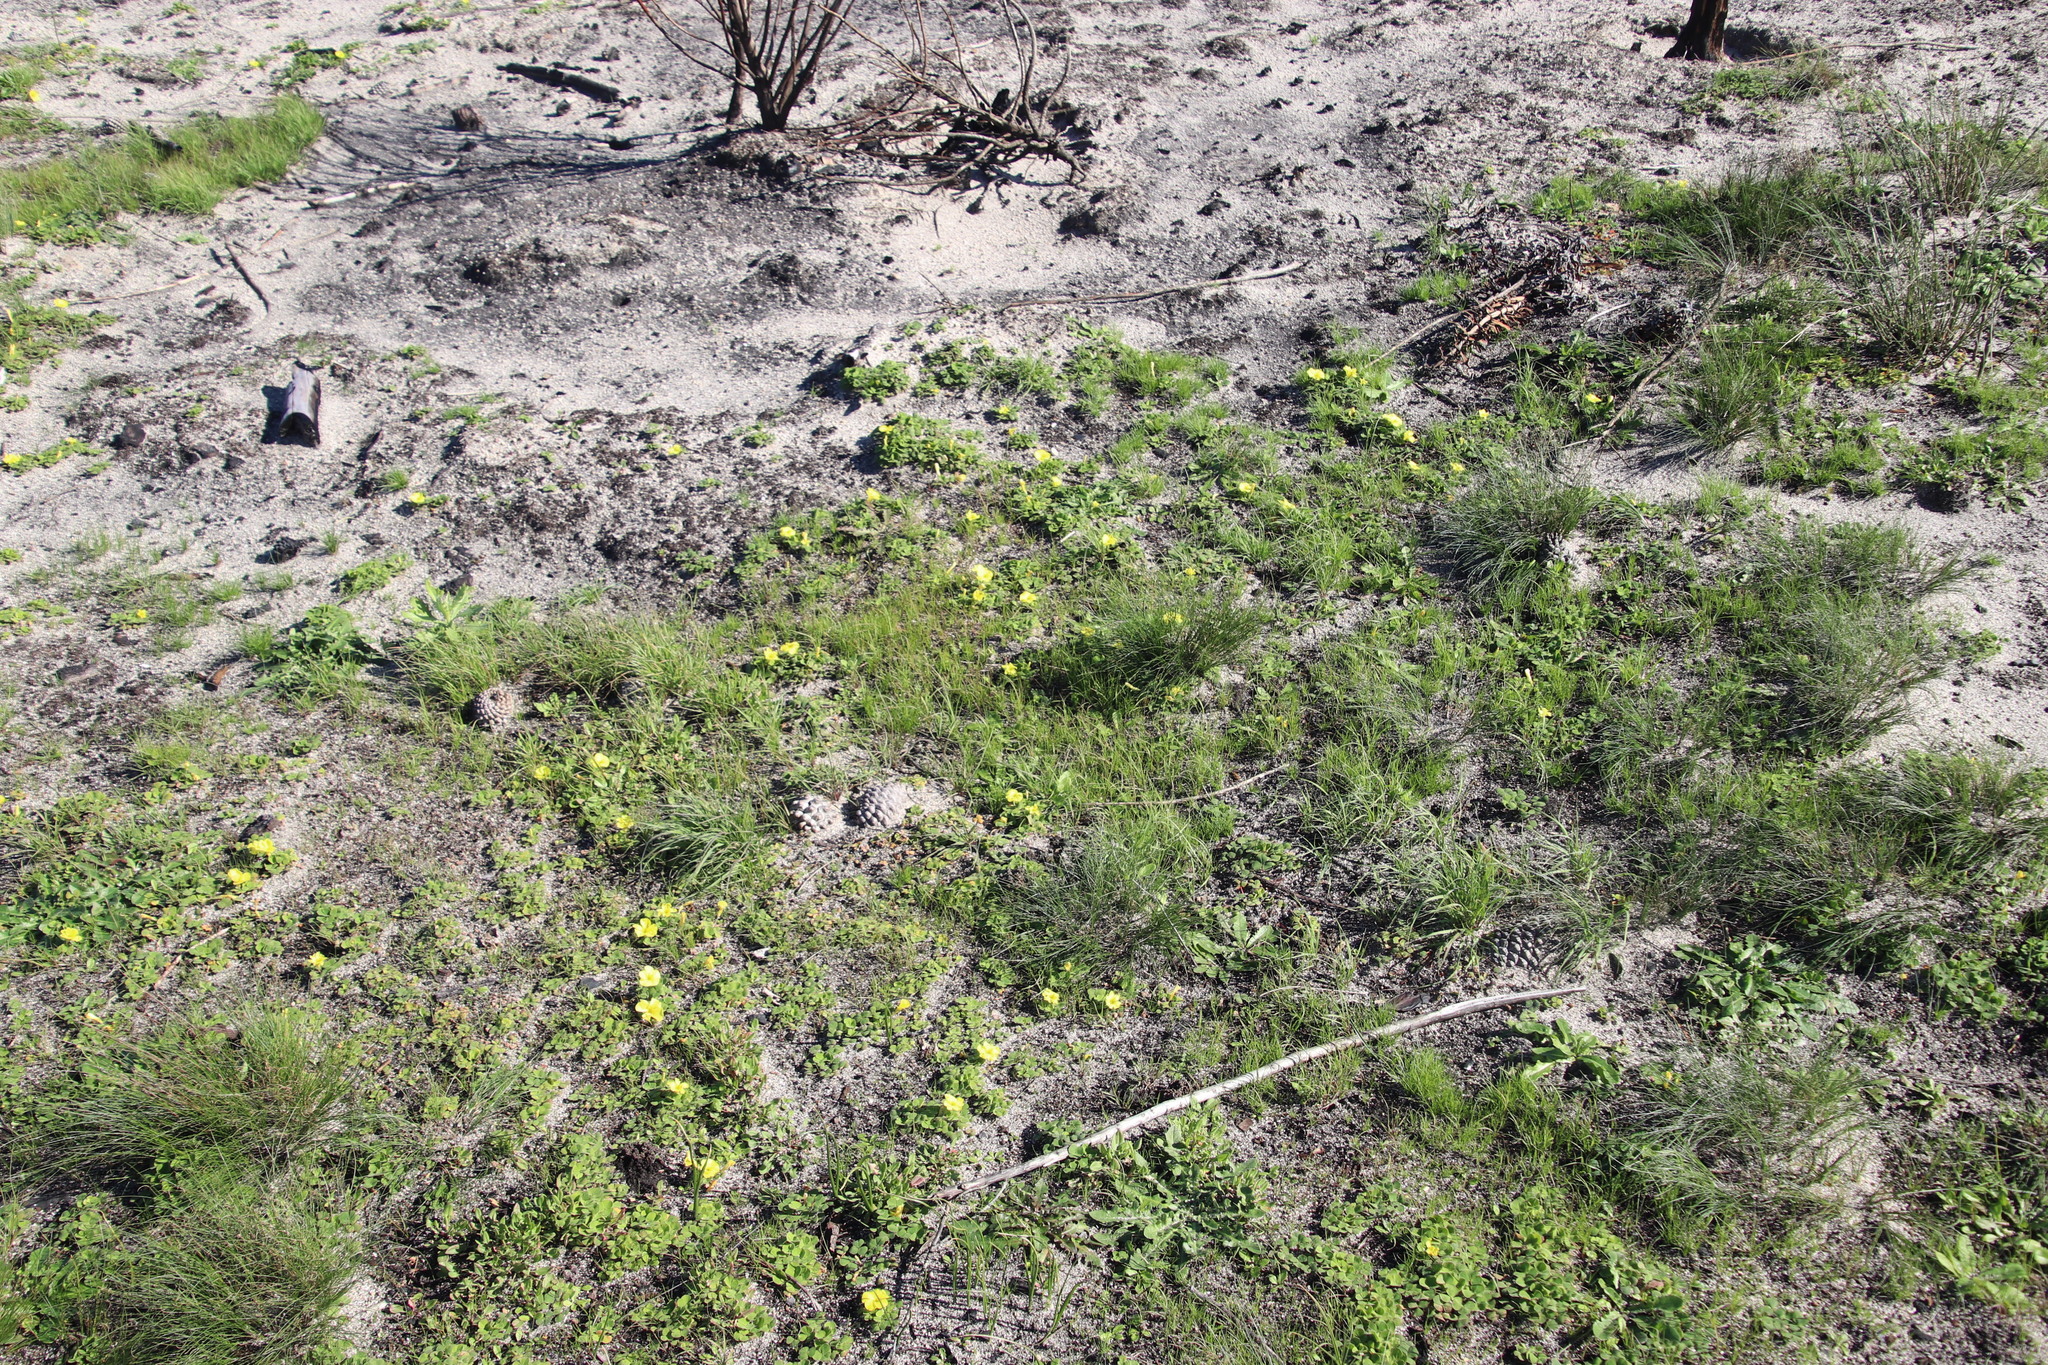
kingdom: Plantae
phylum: Tracheophyta
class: Magnoliopsida
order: Oxalidales
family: Oxalidaceae
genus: Oxalis
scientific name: Oxalis luteola
